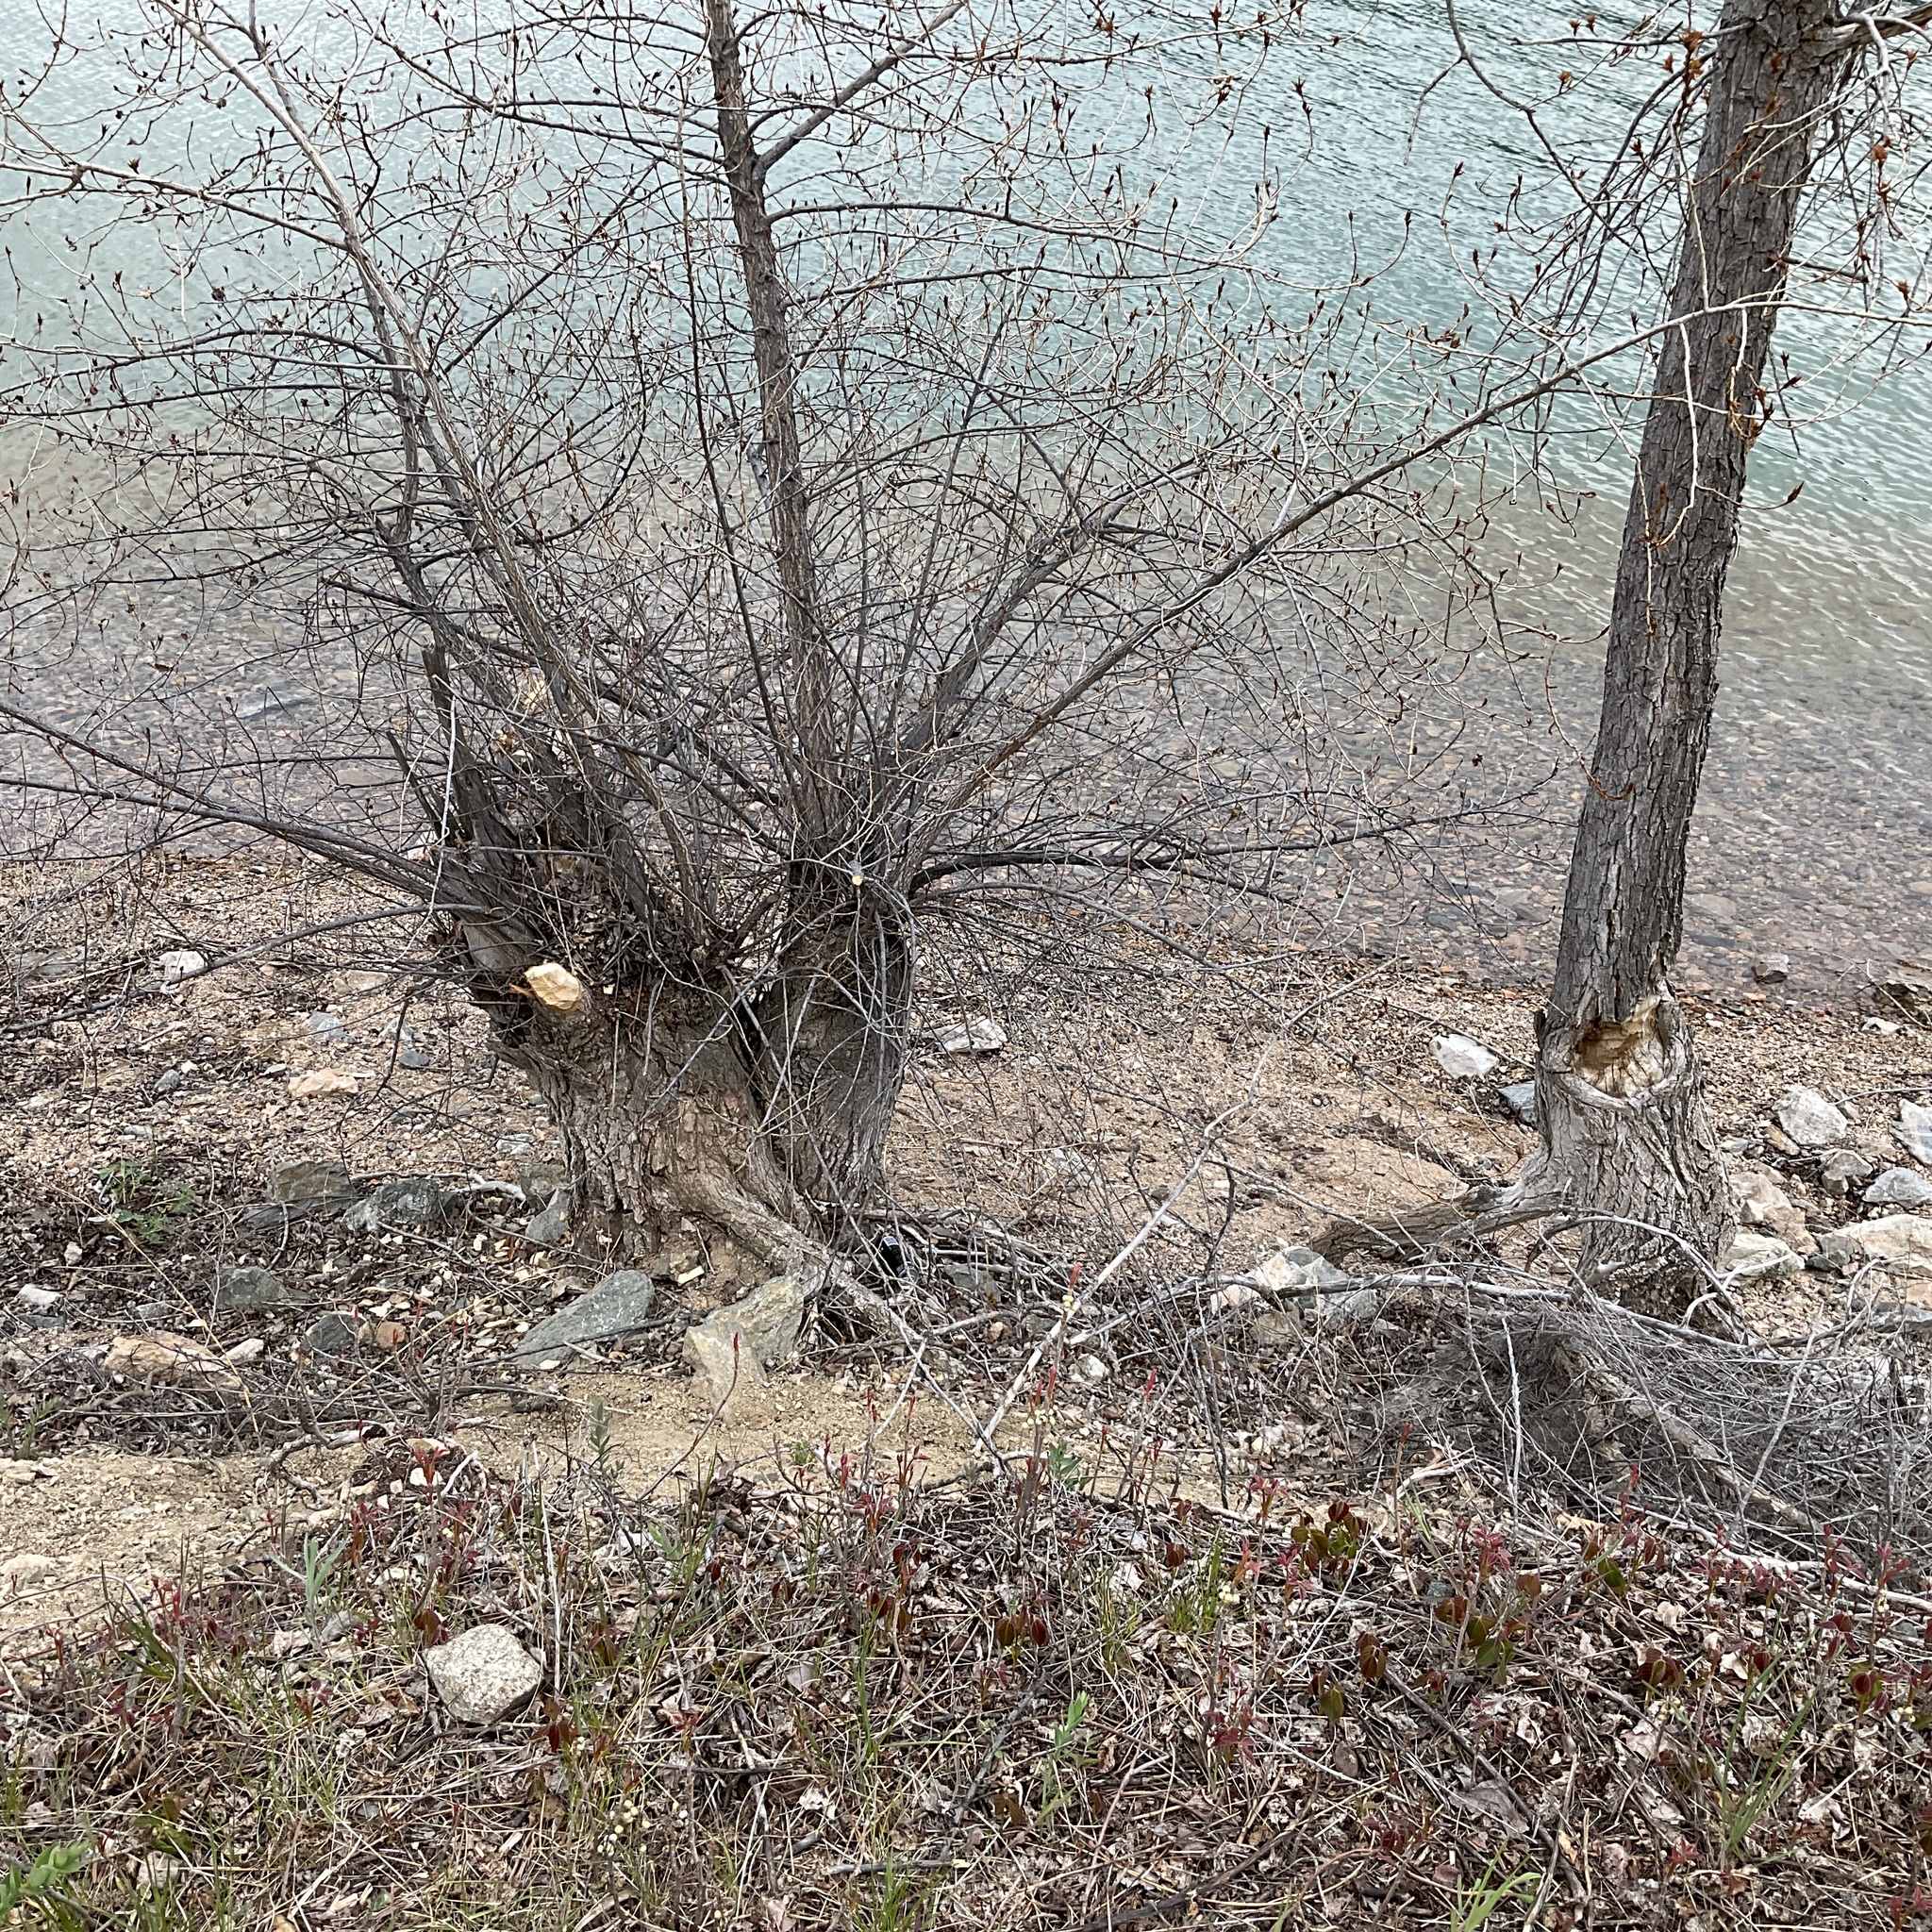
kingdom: Animalia
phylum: Chordata
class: Mammalia
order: Rodentia
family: Castoridae
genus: Castor
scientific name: Castor canadensis
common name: American beaver
